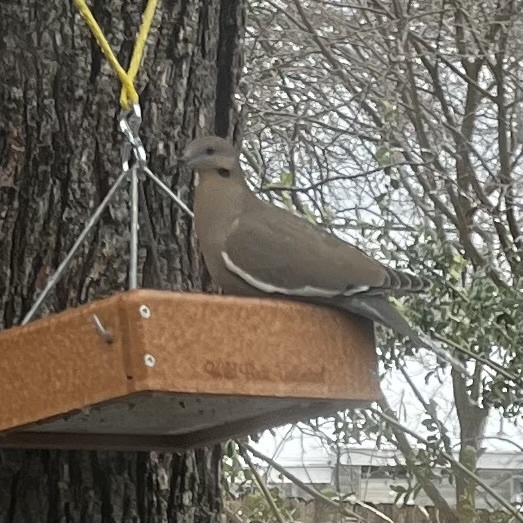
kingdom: Animalia
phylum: Chordata
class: Aves
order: Columbiformes
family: Columbidae
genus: Zenaida
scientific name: Zenaida asiatica
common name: White-winged dove
